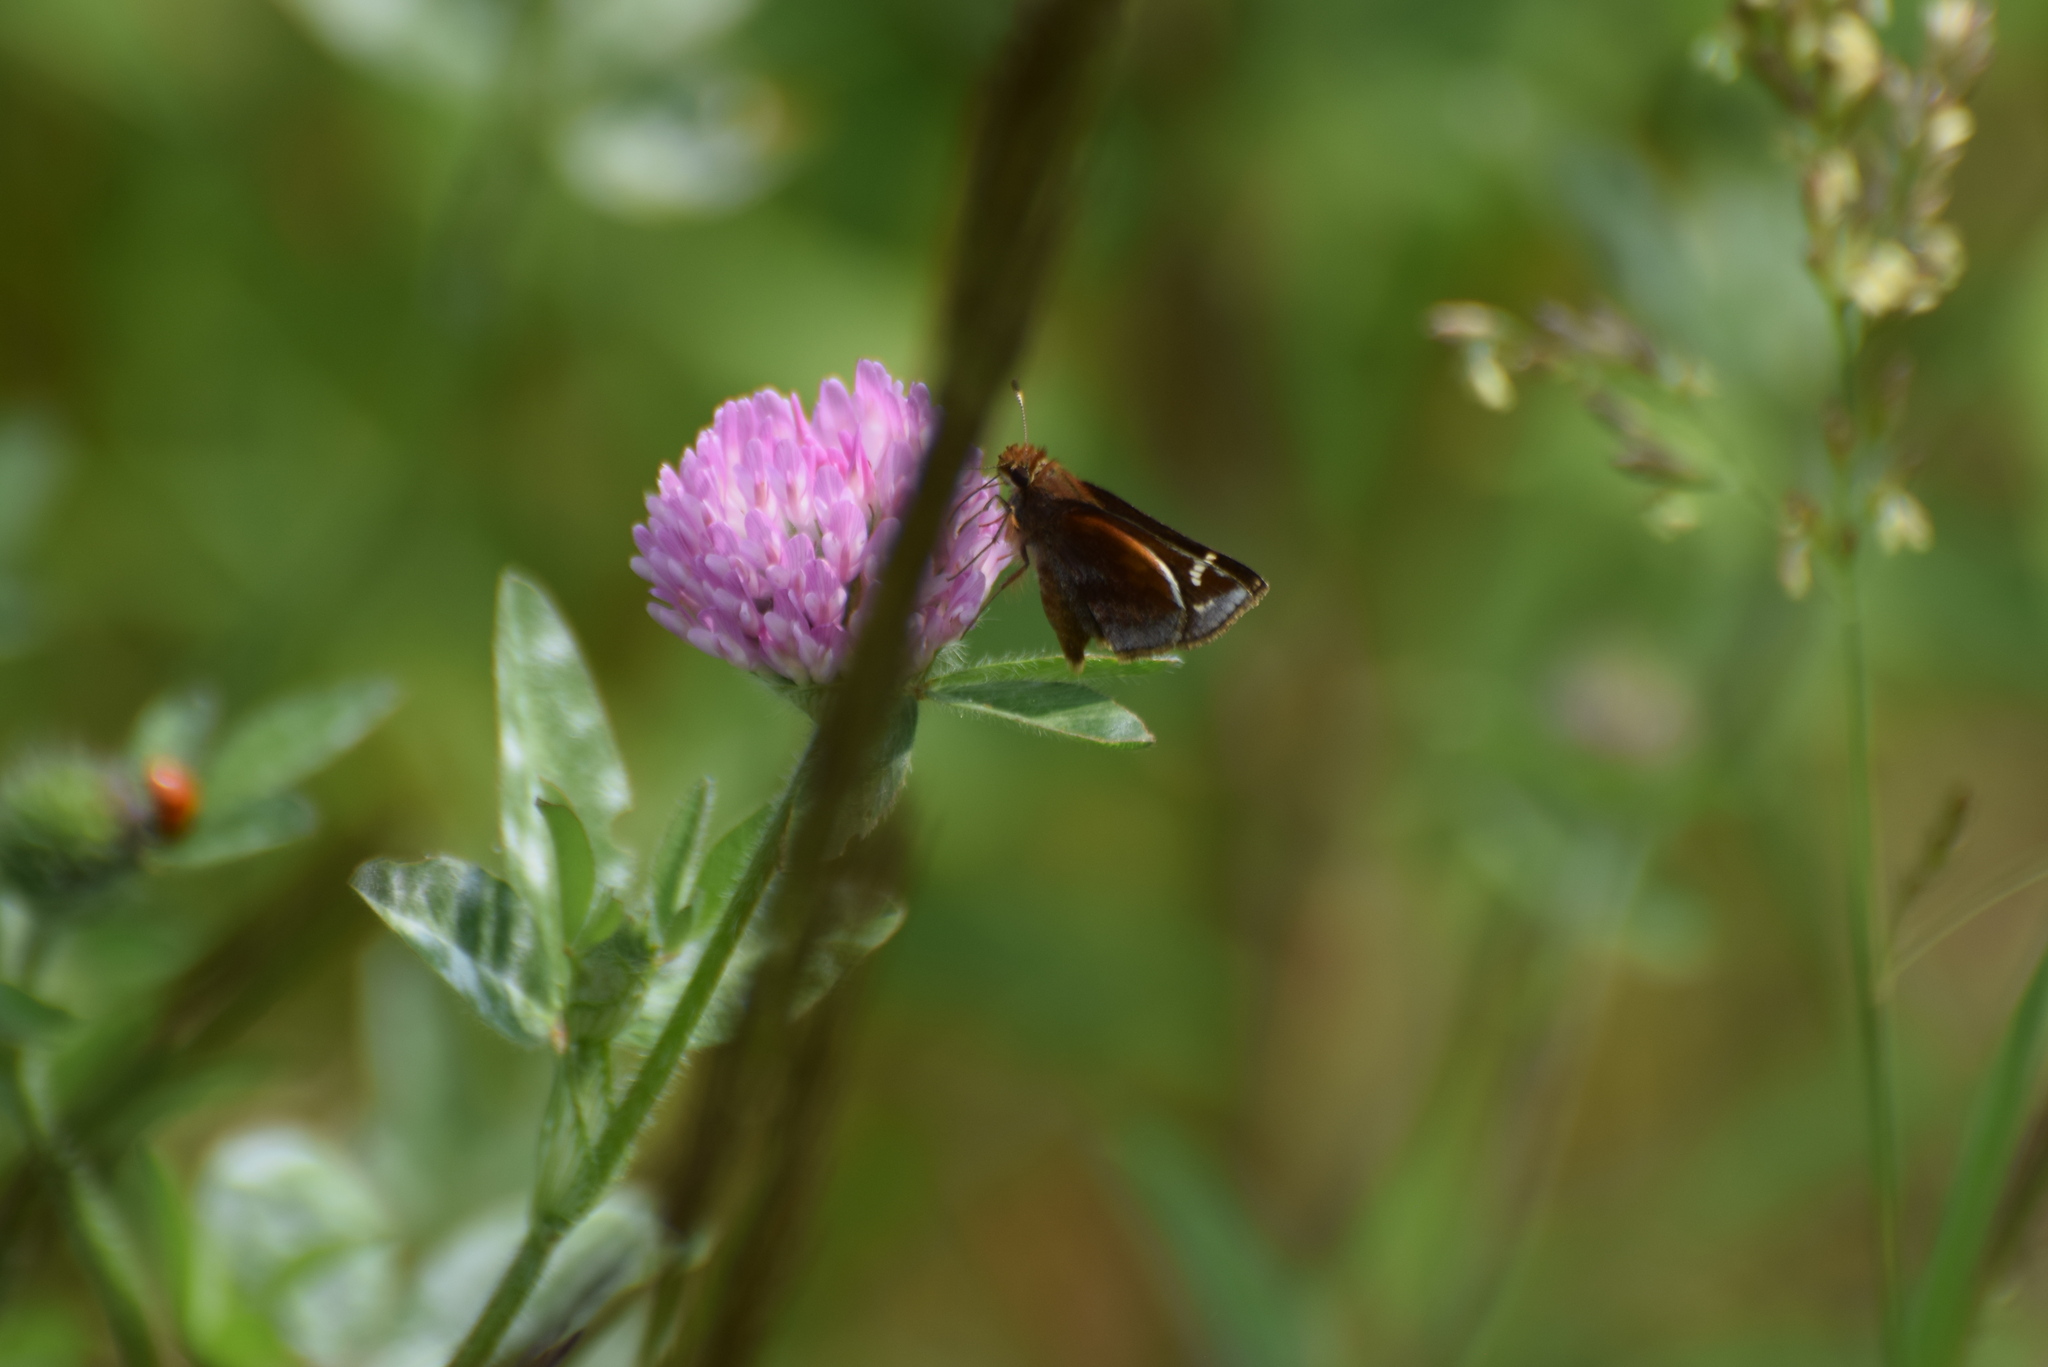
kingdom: Animalia
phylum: Arthropoda
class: Insecta
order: Lepidoptera
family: Hesperiidae
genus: Lon
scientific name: Lon zabulon
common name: Zabulon skipper
